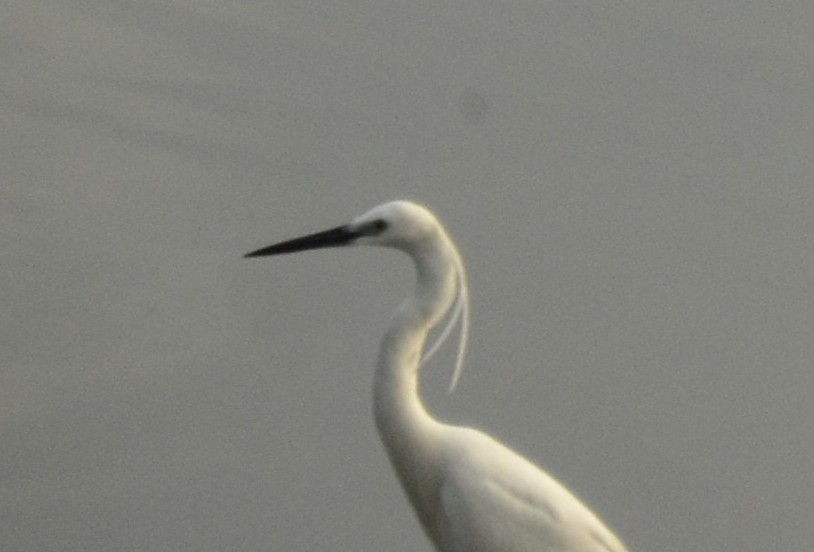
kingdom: Animalia
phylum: Chordata
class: Aves
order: Pelecaniformes
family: Ardeidae
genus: Egretta
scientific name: Egretta garzetta
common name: Little egret
